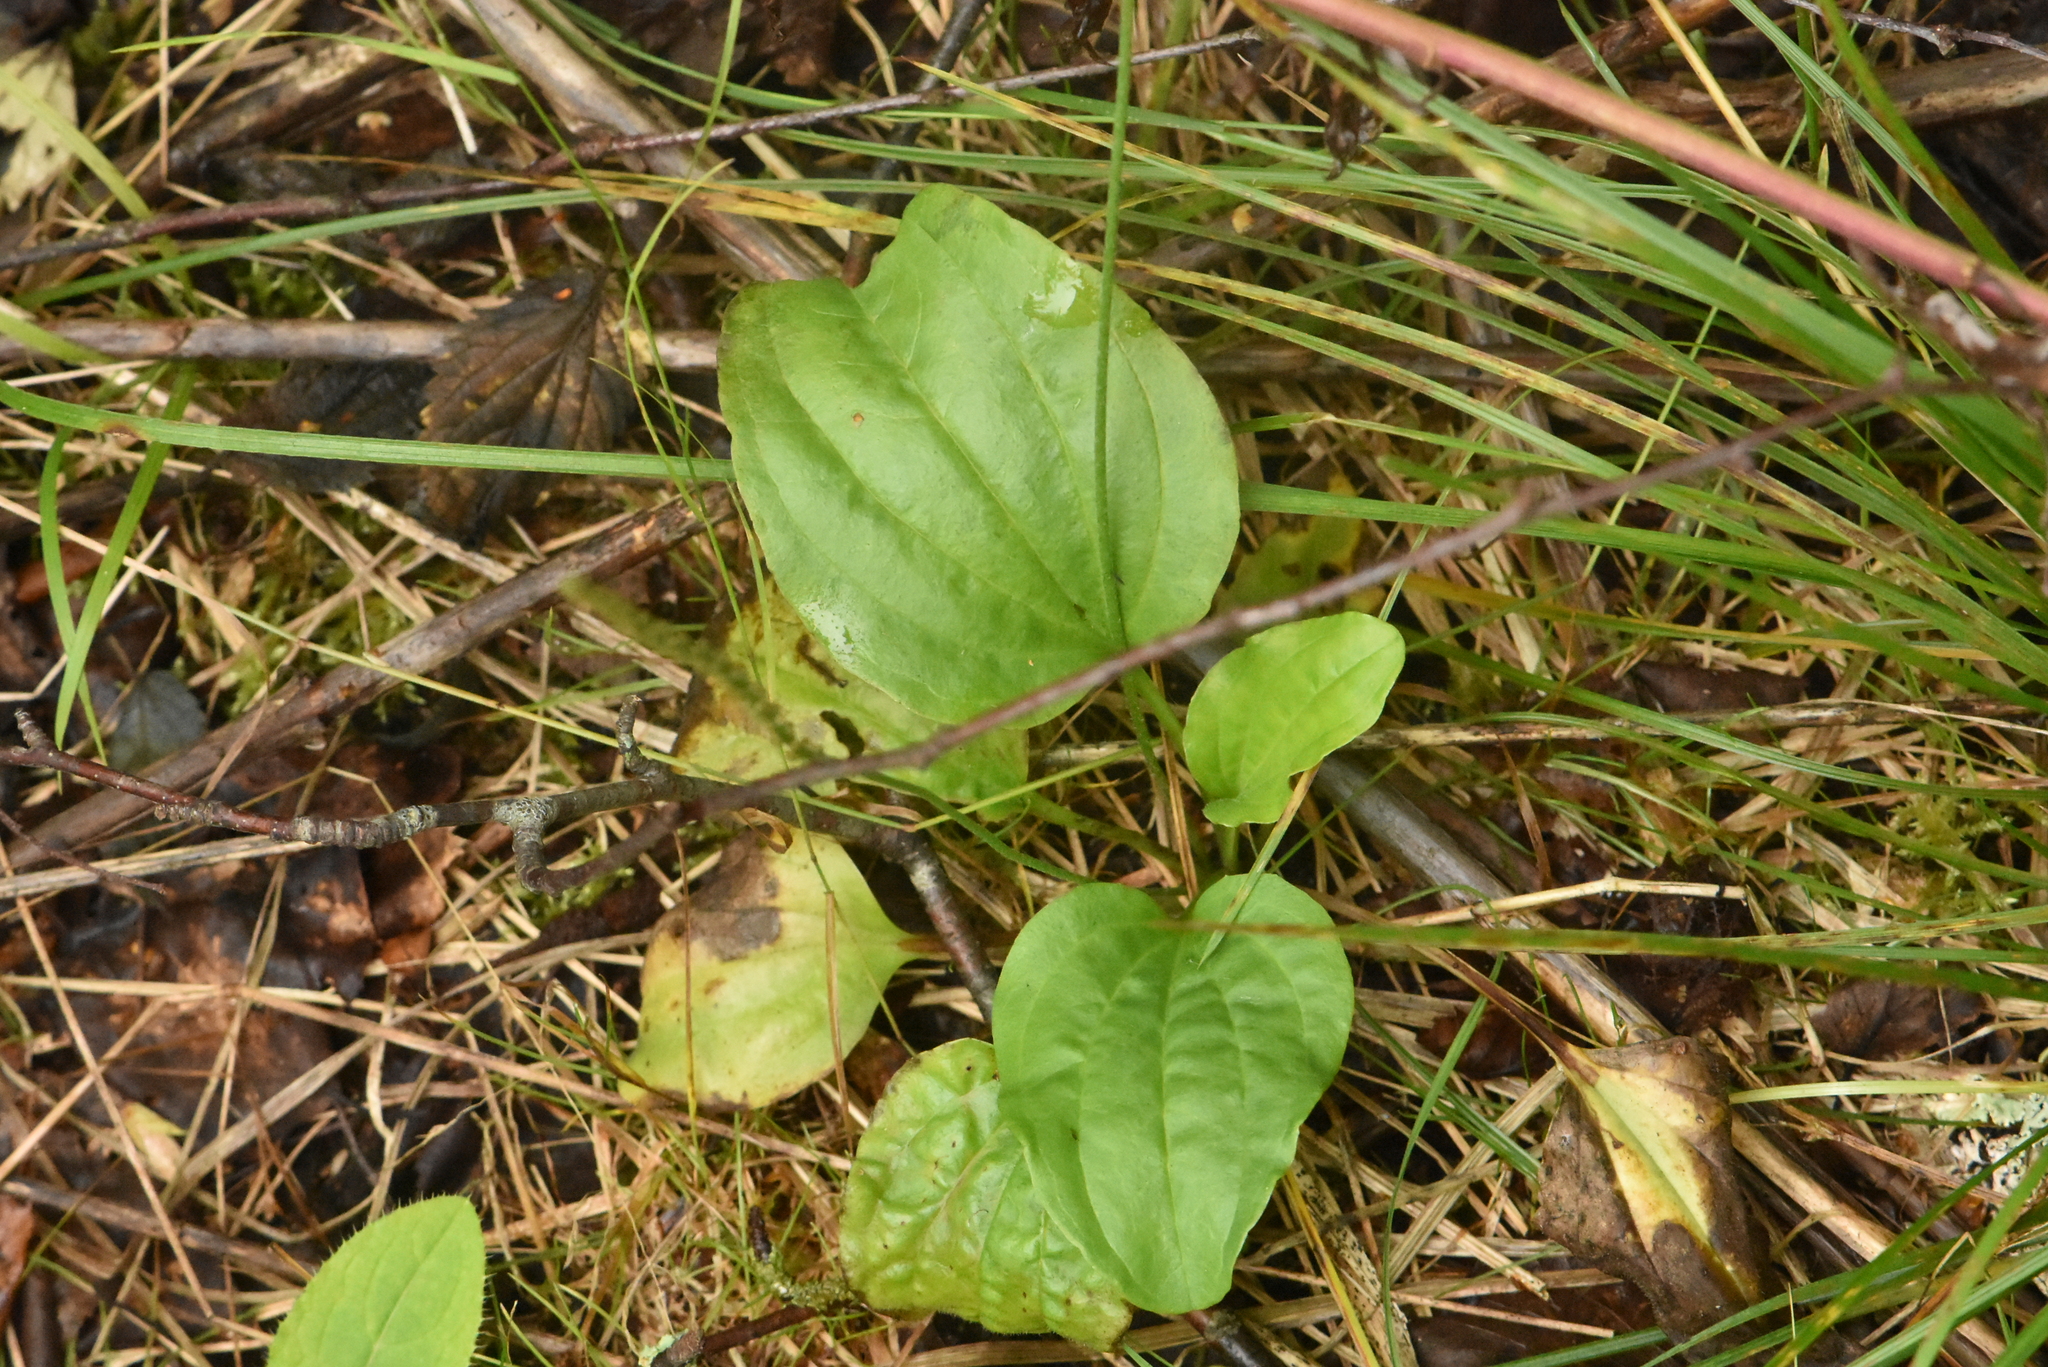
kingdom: Plantae
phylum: Tracheophyta
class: Magnoliopsida
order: Lamiales
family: Plantaginaceae
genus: Plantago
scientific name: Plantago major
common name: Common plantain
